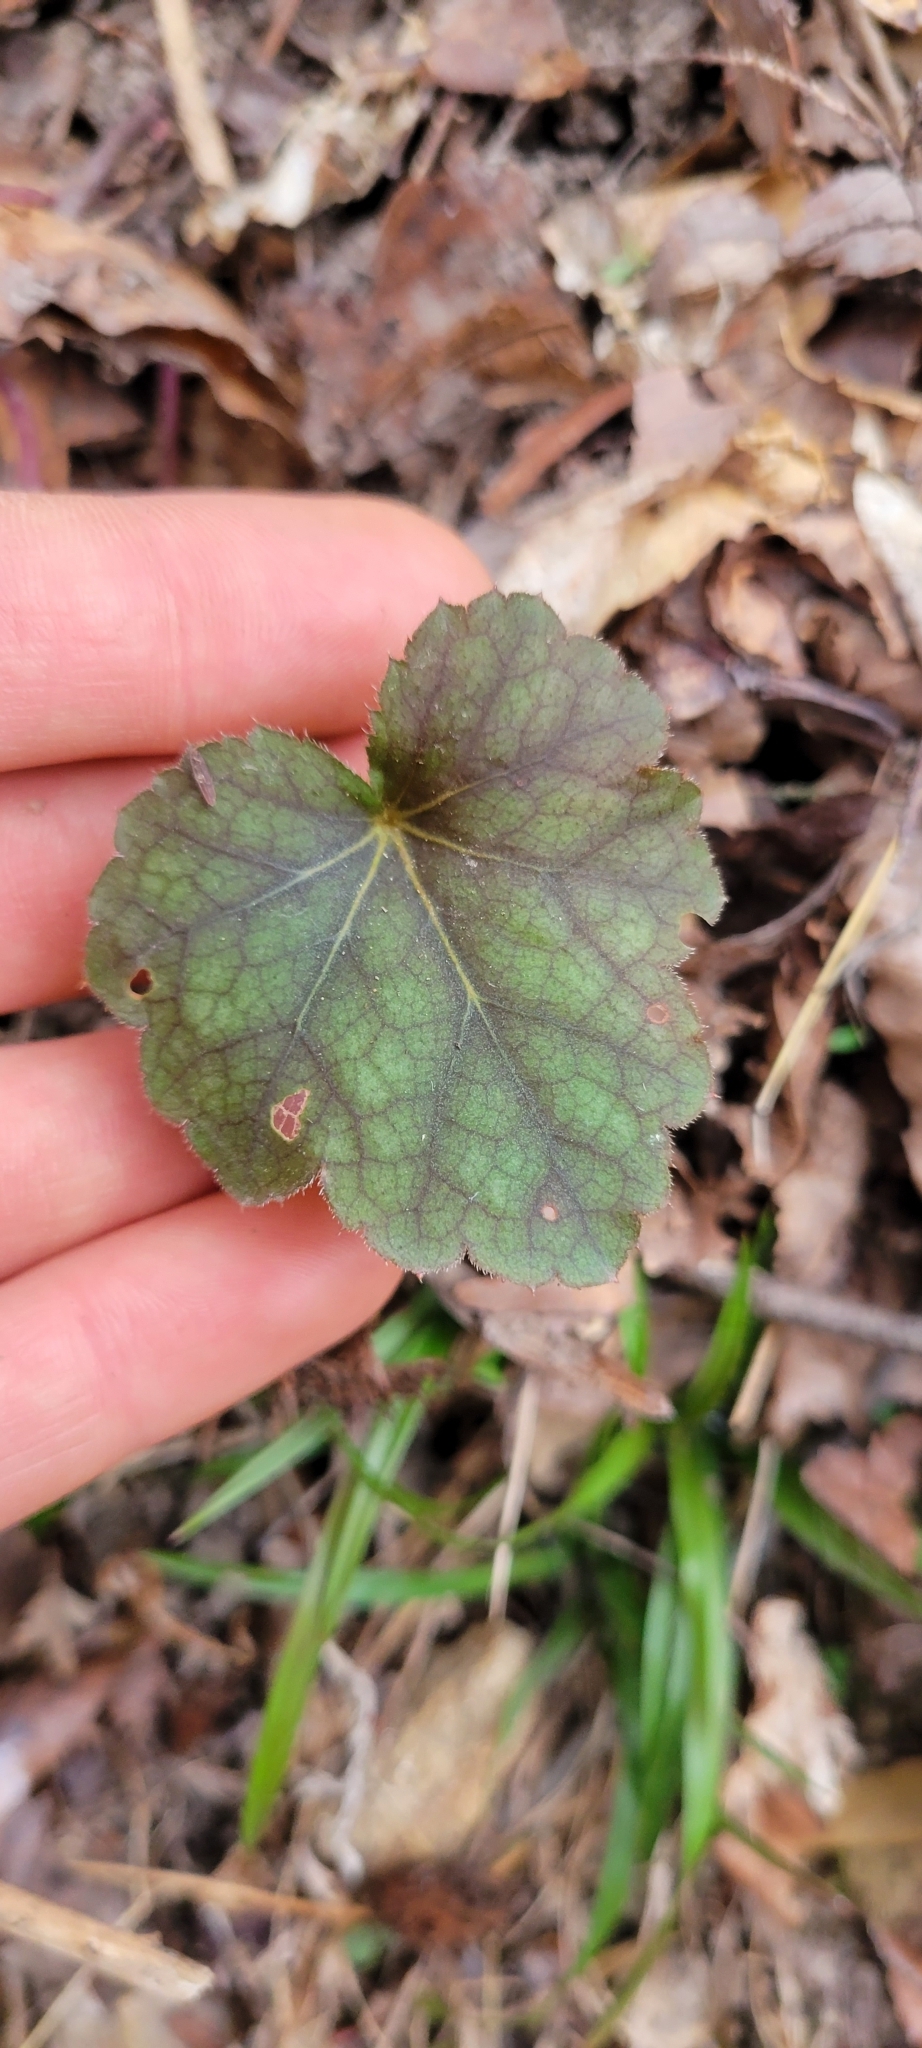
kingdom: Plantae
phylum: Tracheophyta
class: Magnoliopsida
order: Saxifragales
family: Saxifragaceae
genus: Heuchera
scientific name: Heuchera americana
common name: Alumroot
